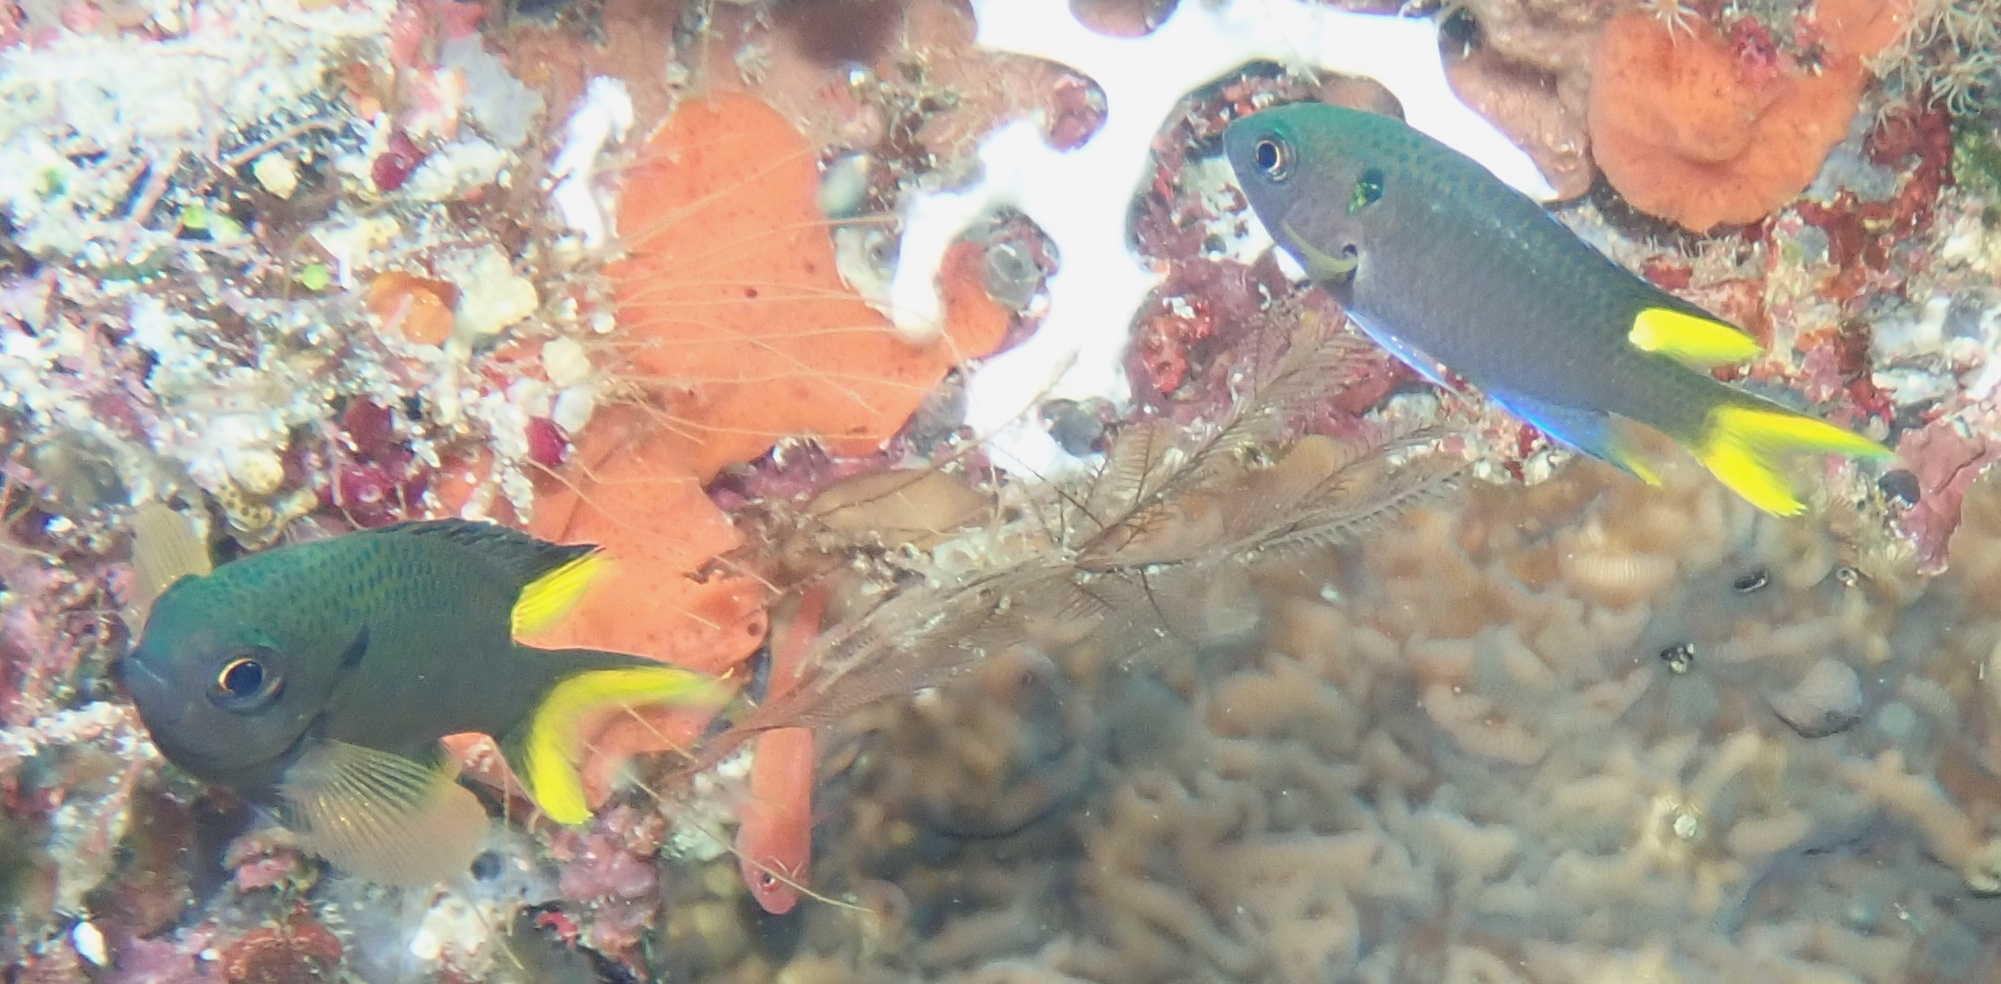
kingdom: Animalia
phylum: Chordata
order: Perciformes
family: Pomacentridae
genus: Neopomacentrus
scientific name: Neopomacentrus cyanomos
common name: Regal demoiselle
